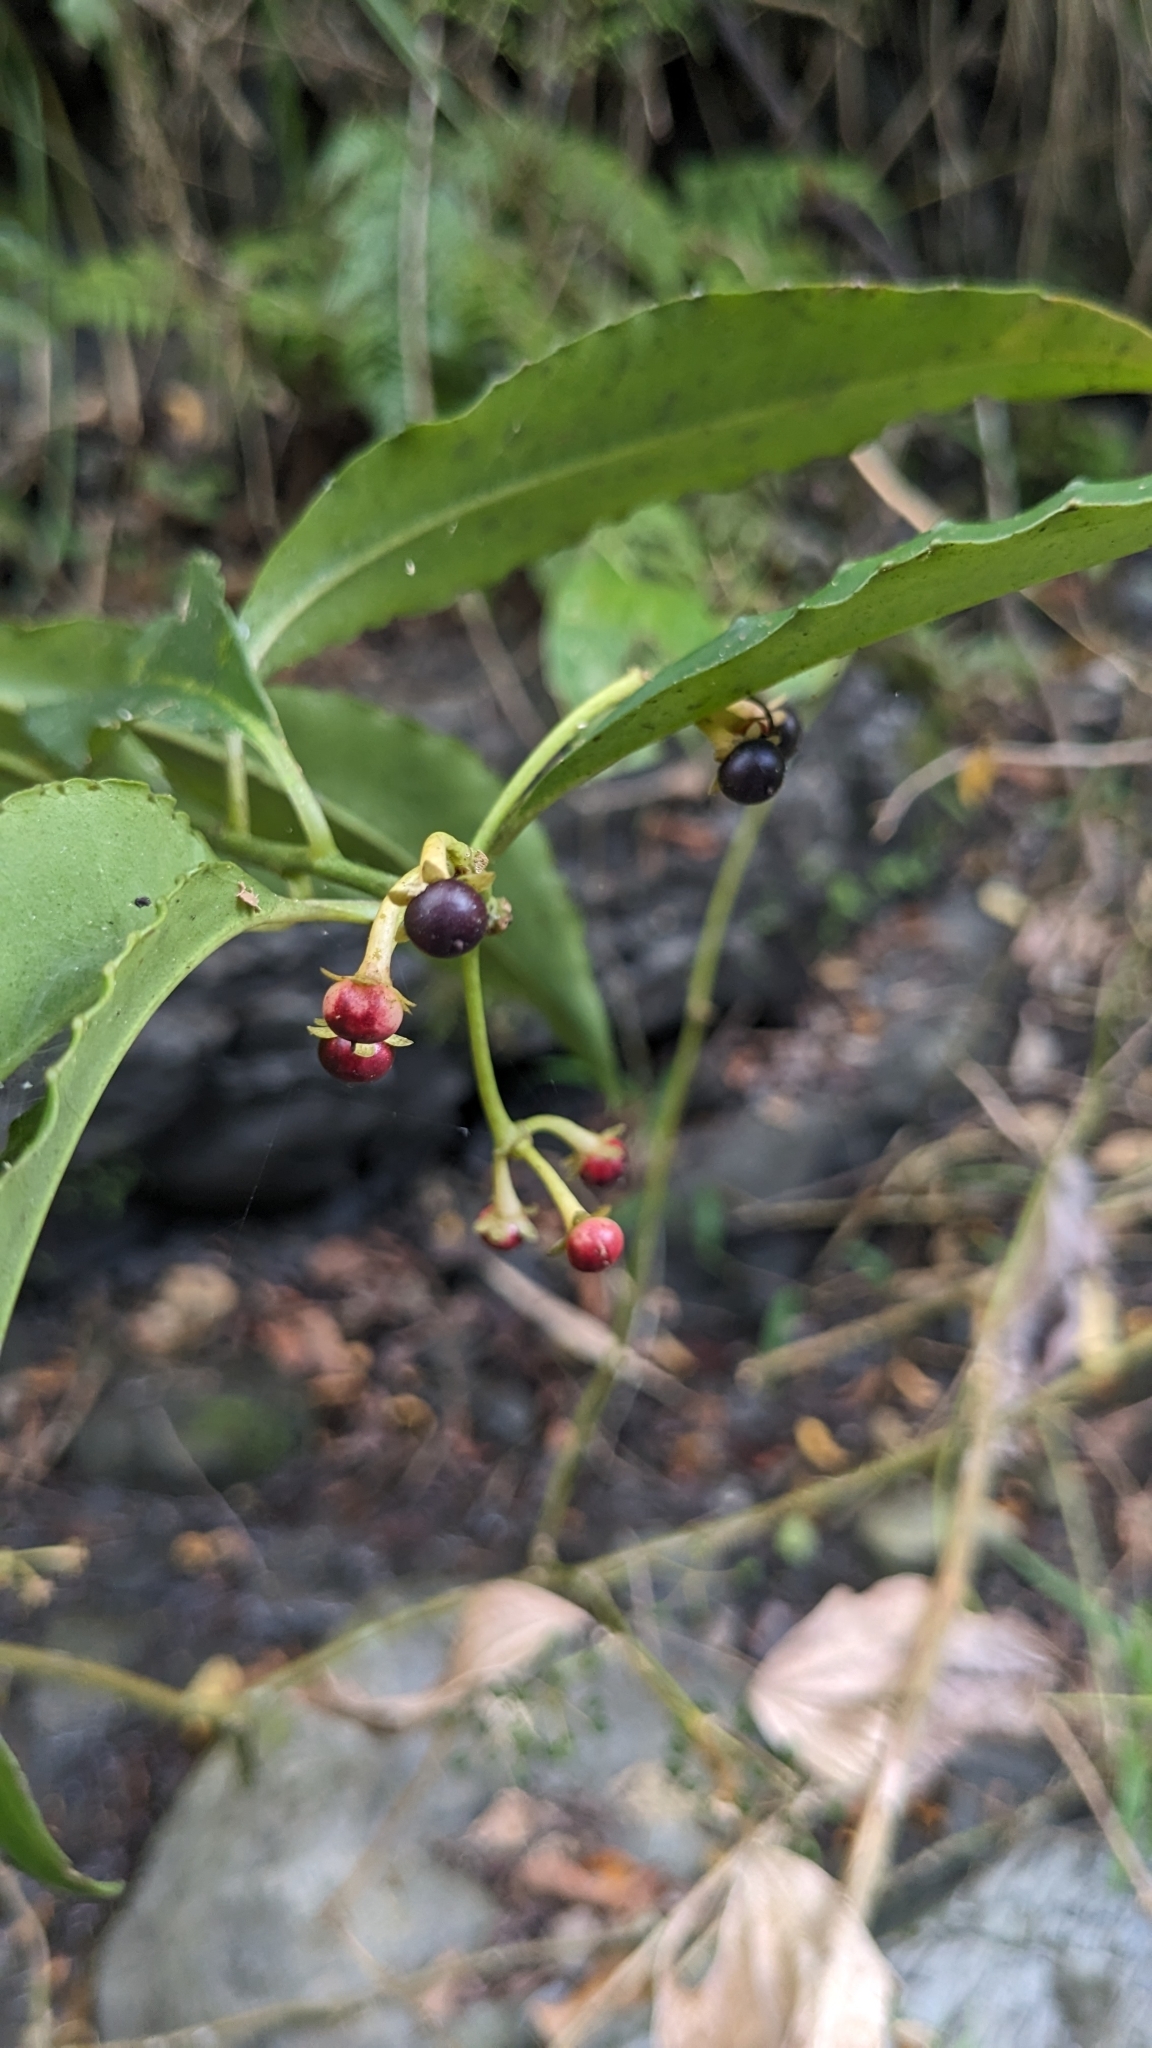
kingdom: Plantae
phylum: Tracheophyta
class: Magnoliopsida
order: Ericales
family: Primulaceae
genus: Ardisia
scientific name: Ardisia polysticta
